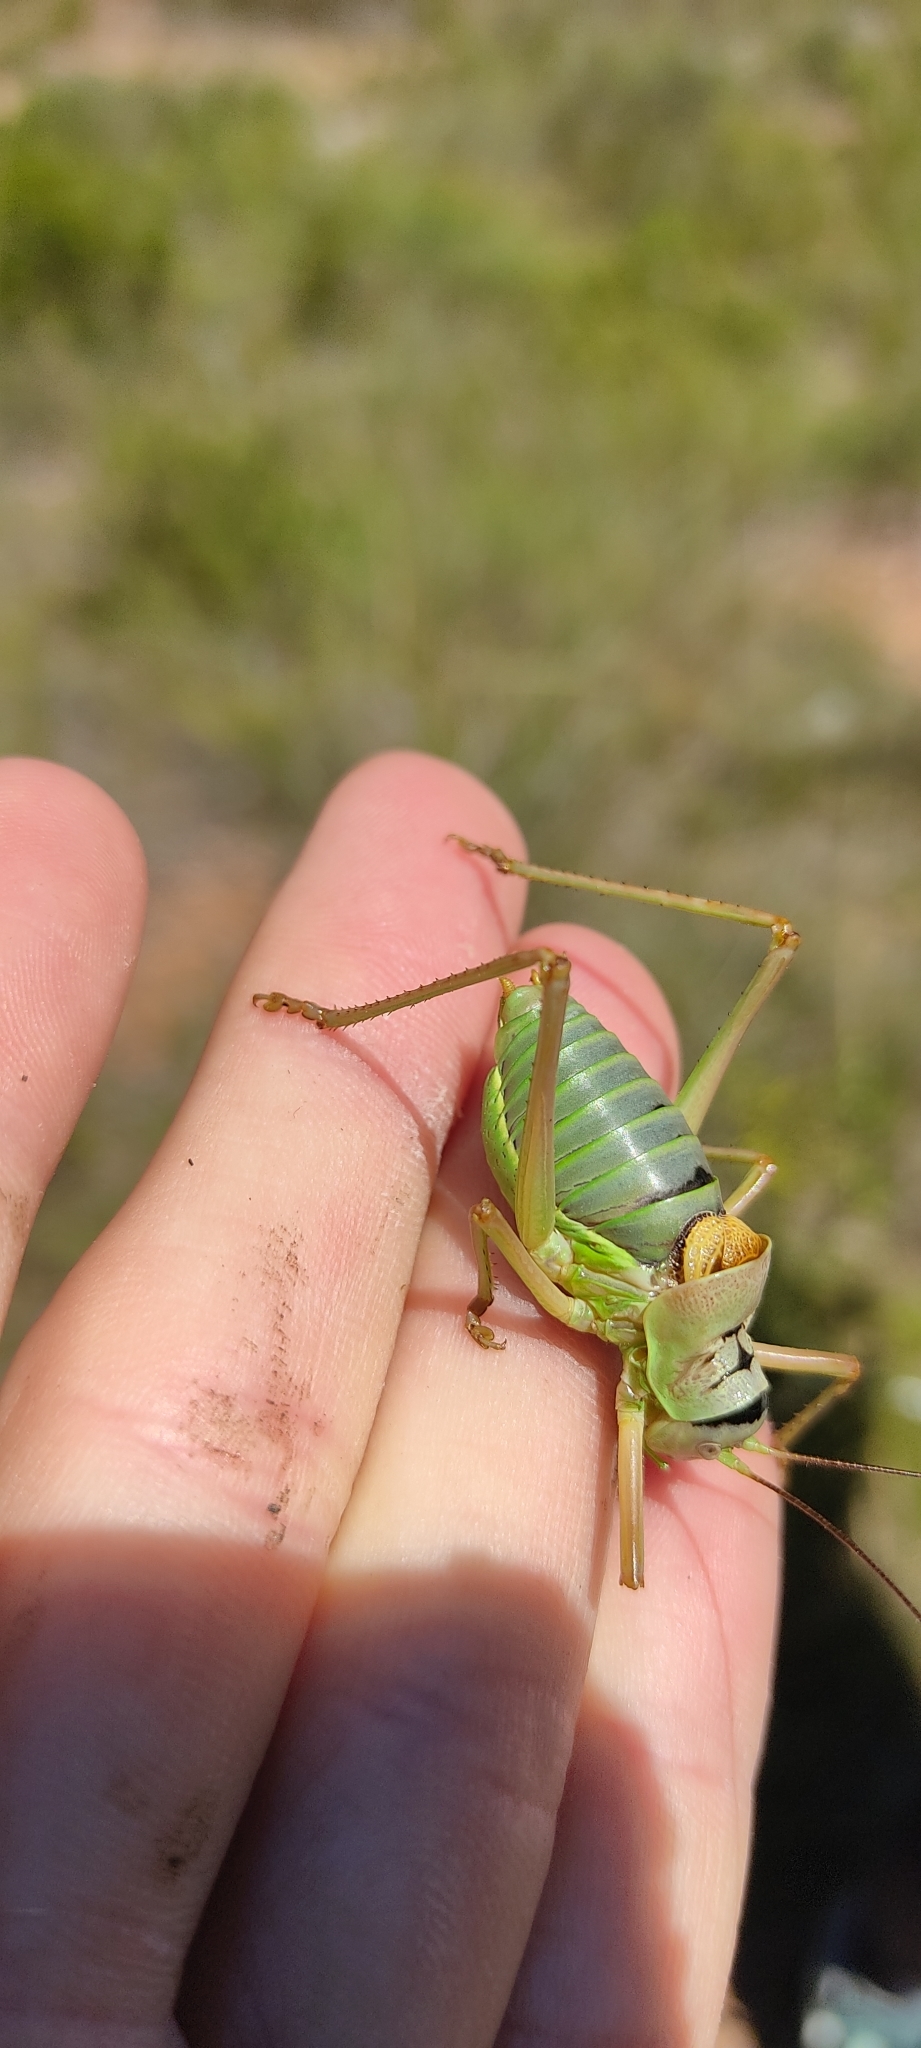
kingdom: Animalia
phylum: Arthropoda
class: Insecta
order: Orthoptera
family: Tettigoniidae
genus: Ephippiger
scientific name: Ephippiger diurnus
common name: Western saddle bush-cricket
